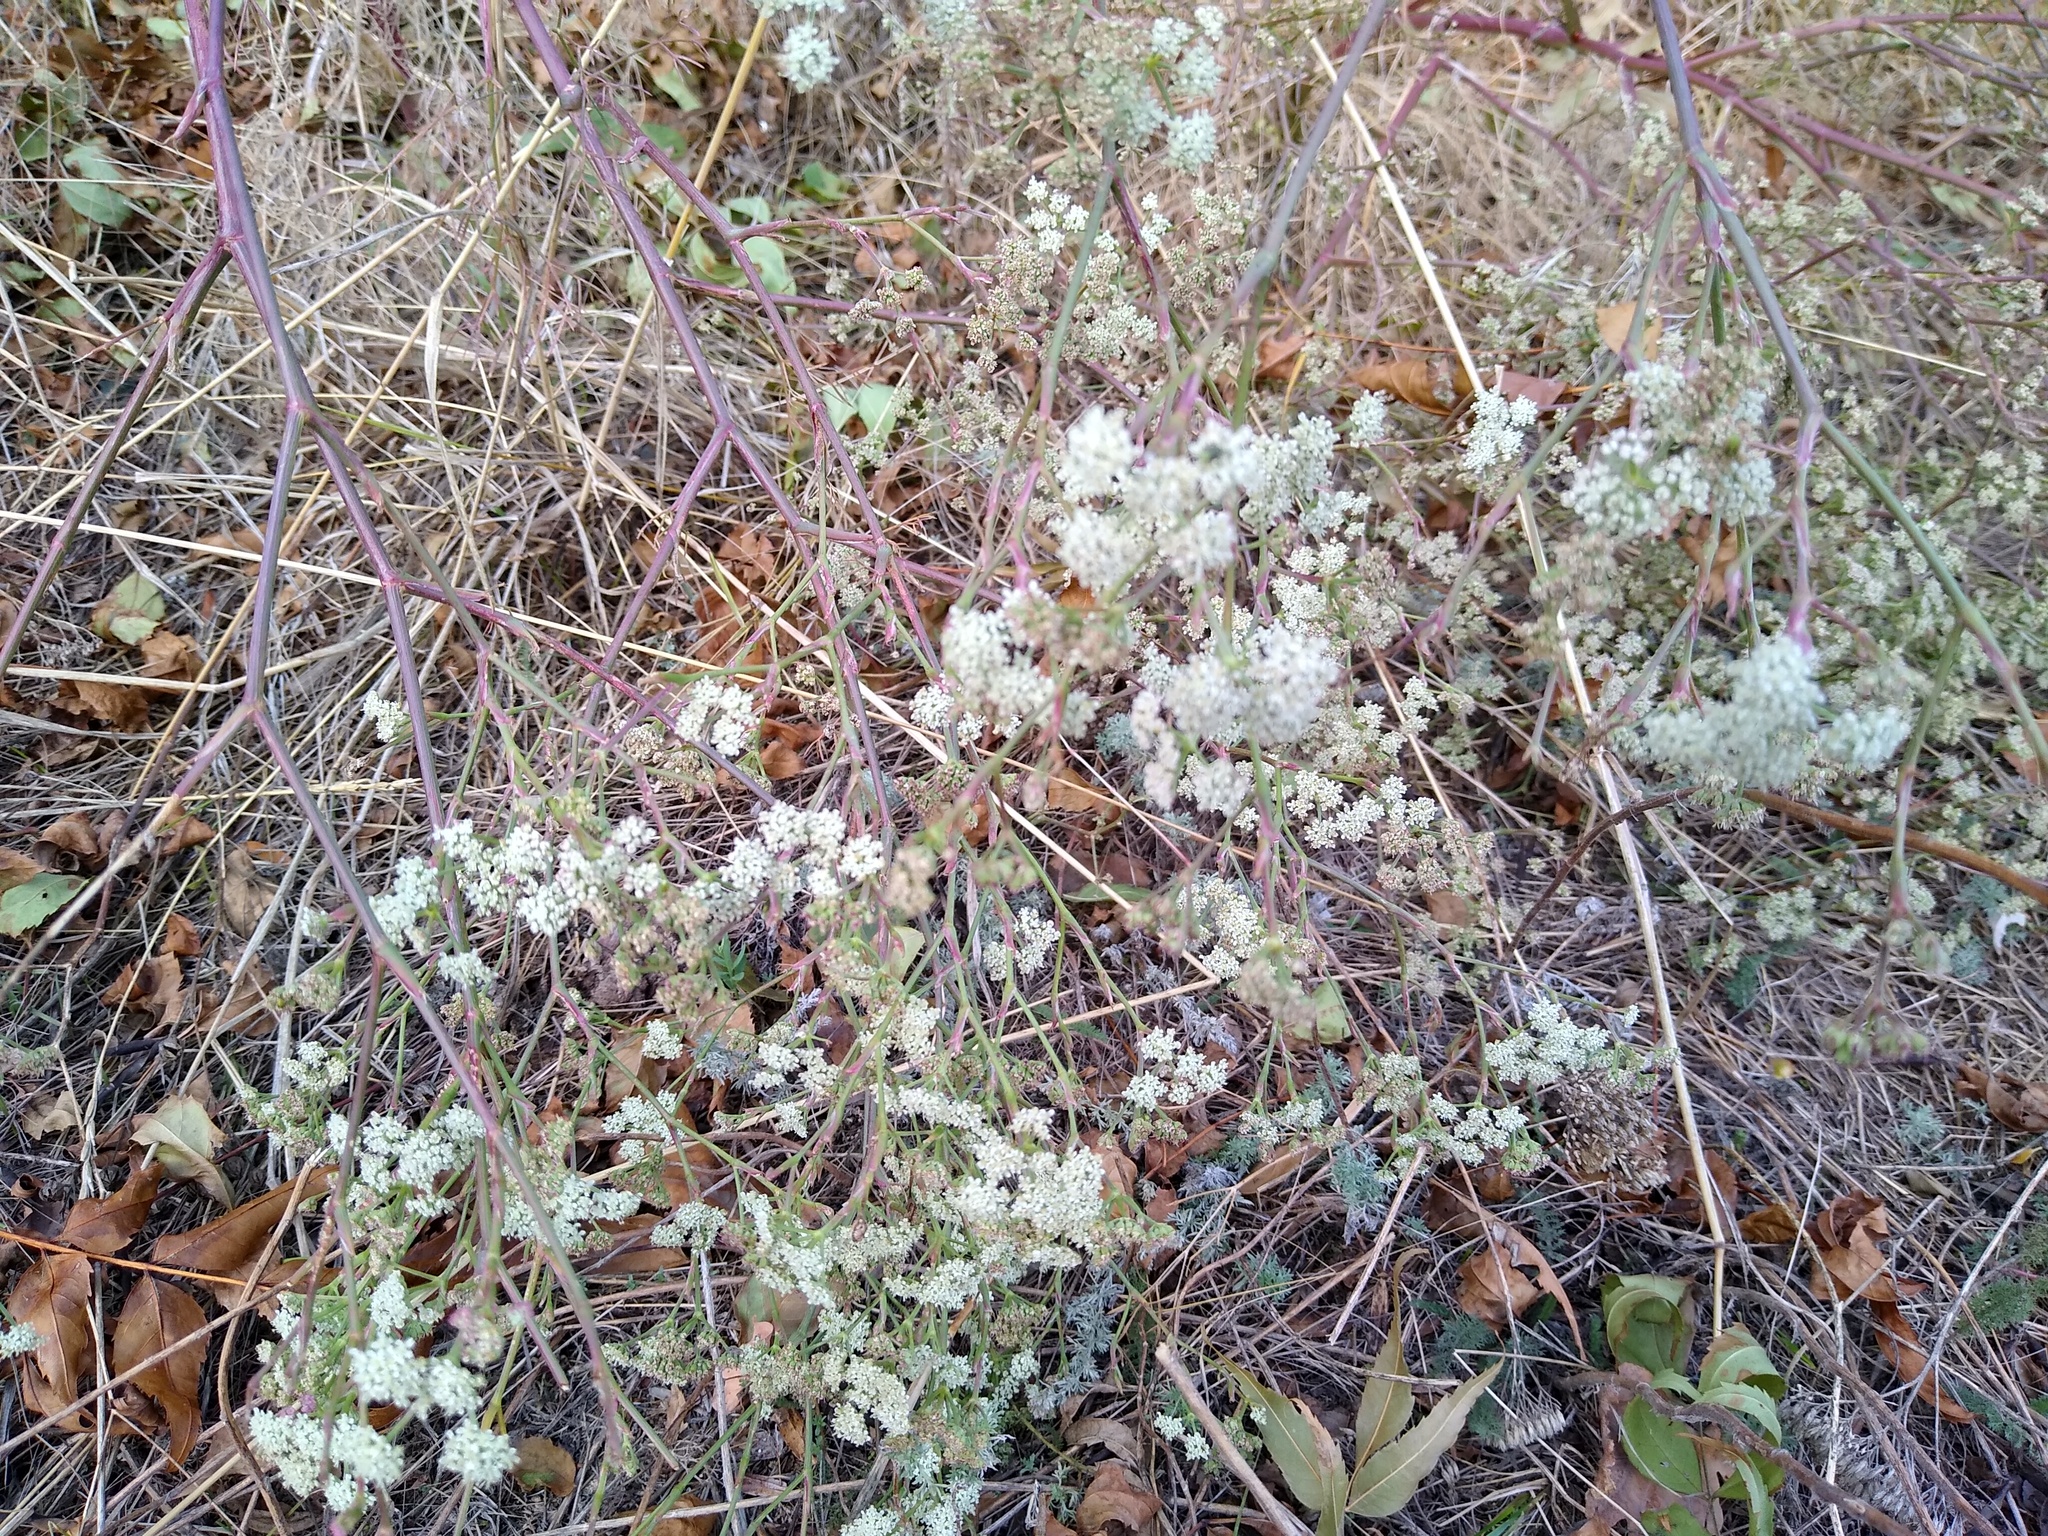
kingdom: Plantae
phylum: Tracheophyta
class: Magnoliopsida
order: Apiales
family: Apiaceae
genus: Seseli
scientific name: Seseli arenarium
